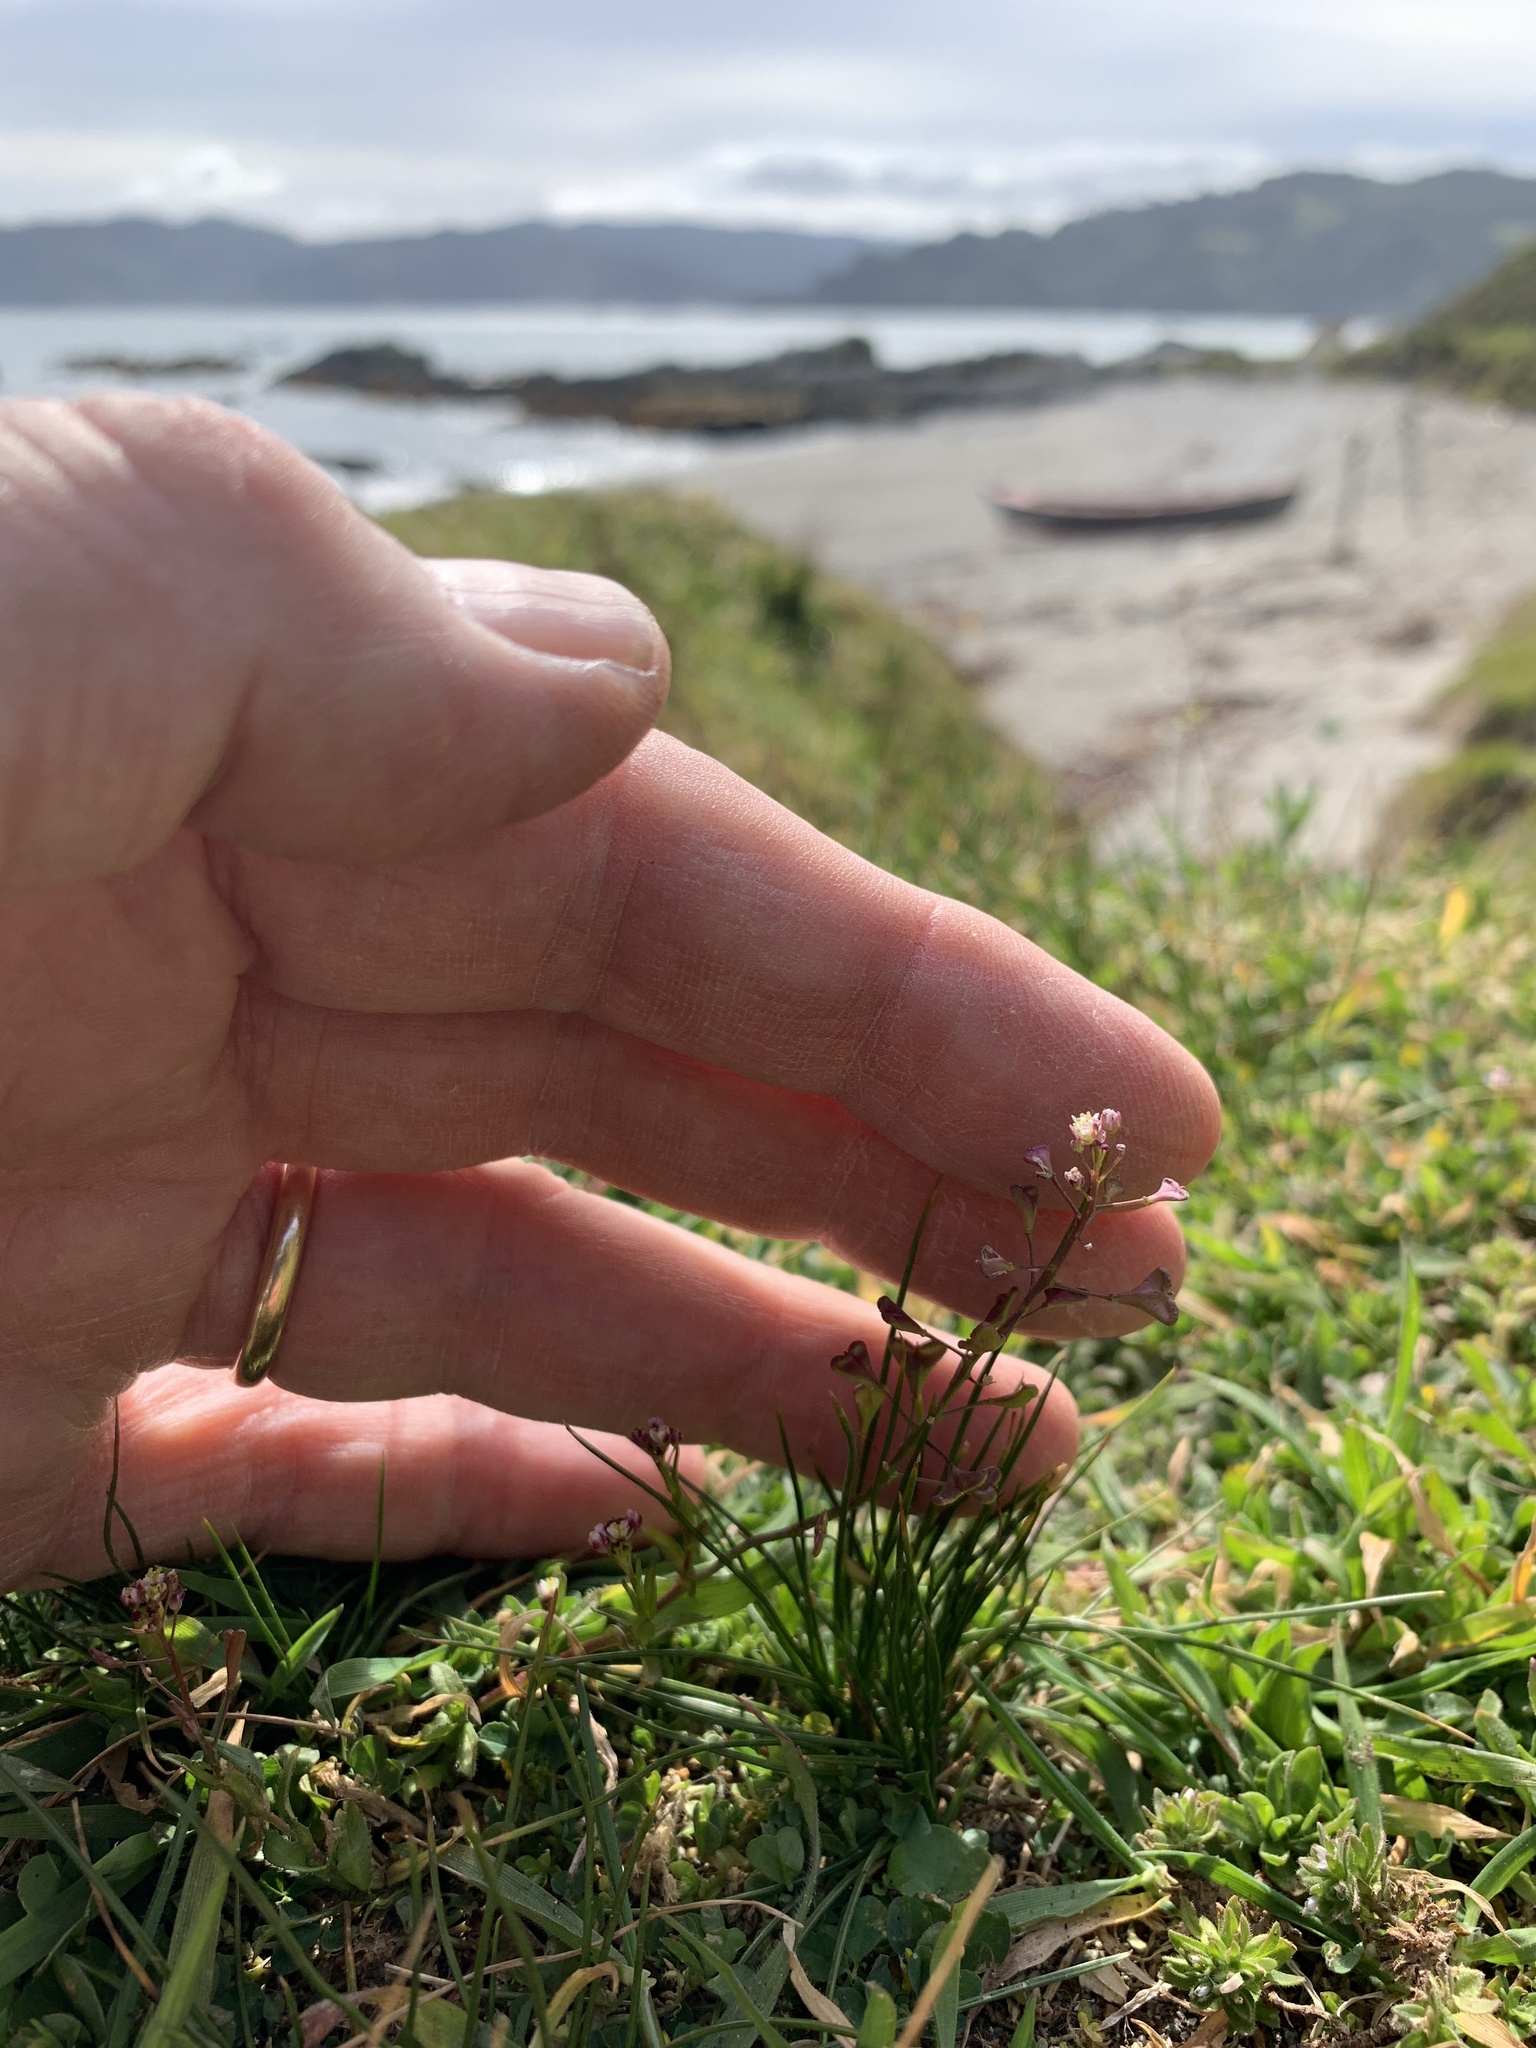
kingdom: Plantae
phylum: Tracheophyta
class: Magnoliopsida
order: Brassicales
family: Brassicaceae
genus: Capsella
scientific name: Capsella bursa-pastoris
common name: Shepherd's purse
